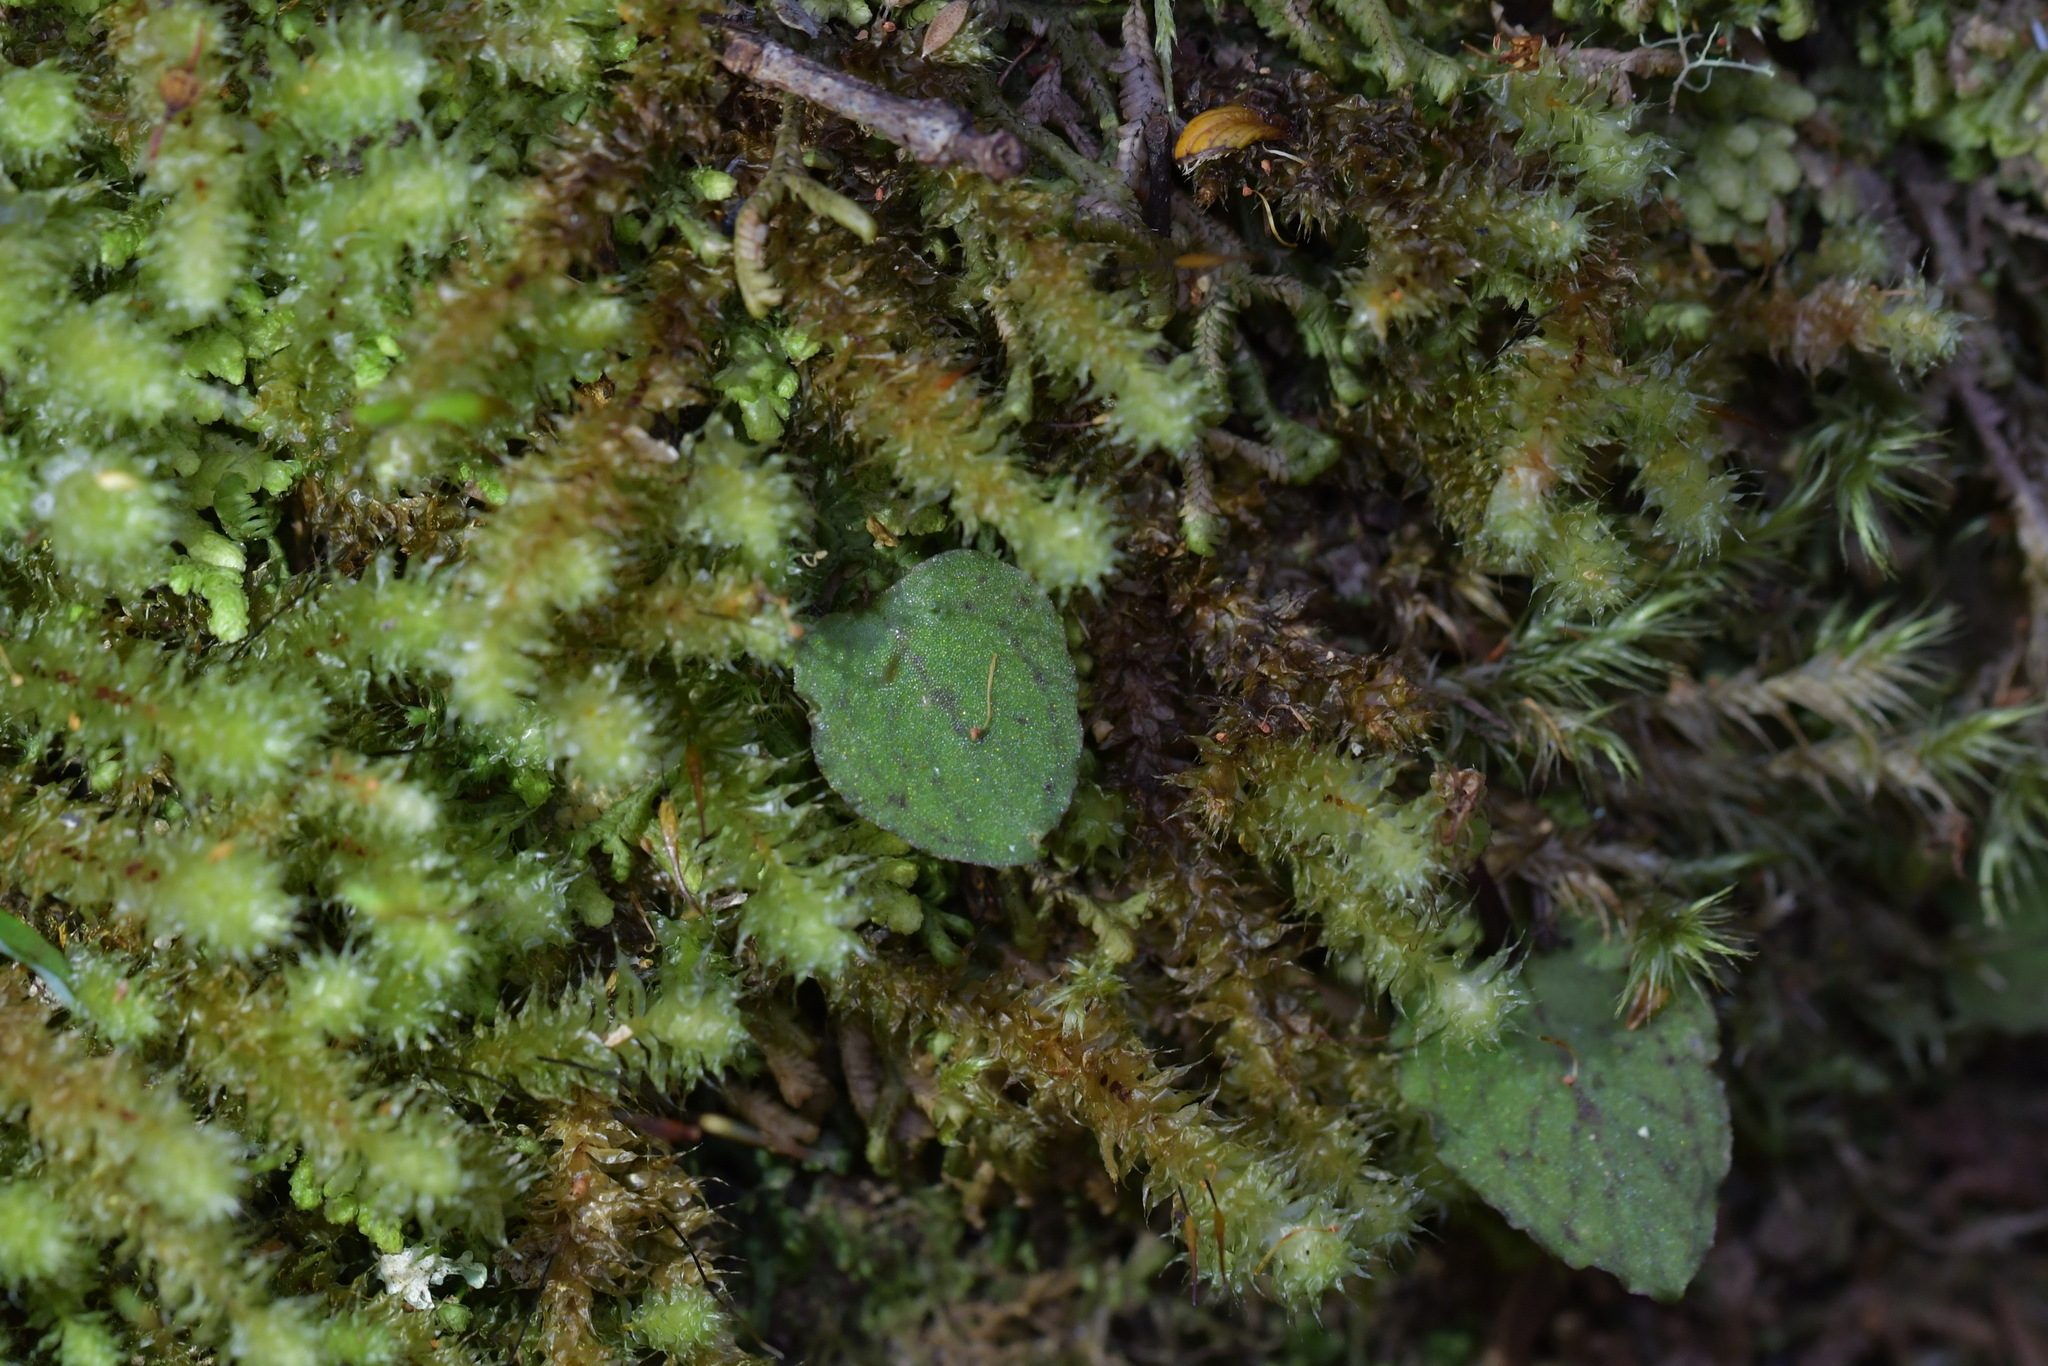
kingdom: Plantae
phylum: Tracheophyta
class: Liliopsida
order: Asparagales
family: Orchidaceae
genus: Corybas
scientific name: Corybas oblongus
